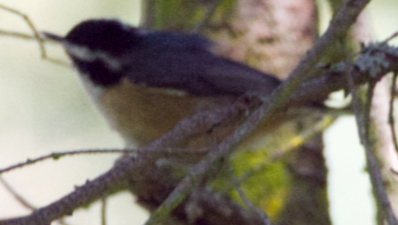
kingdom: Animalia
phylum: Chordata
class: Aves
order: Passeriformes
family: Sittidae
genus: Sitta
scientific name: Sitta canadensis
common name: Red-breasted nuthatch
